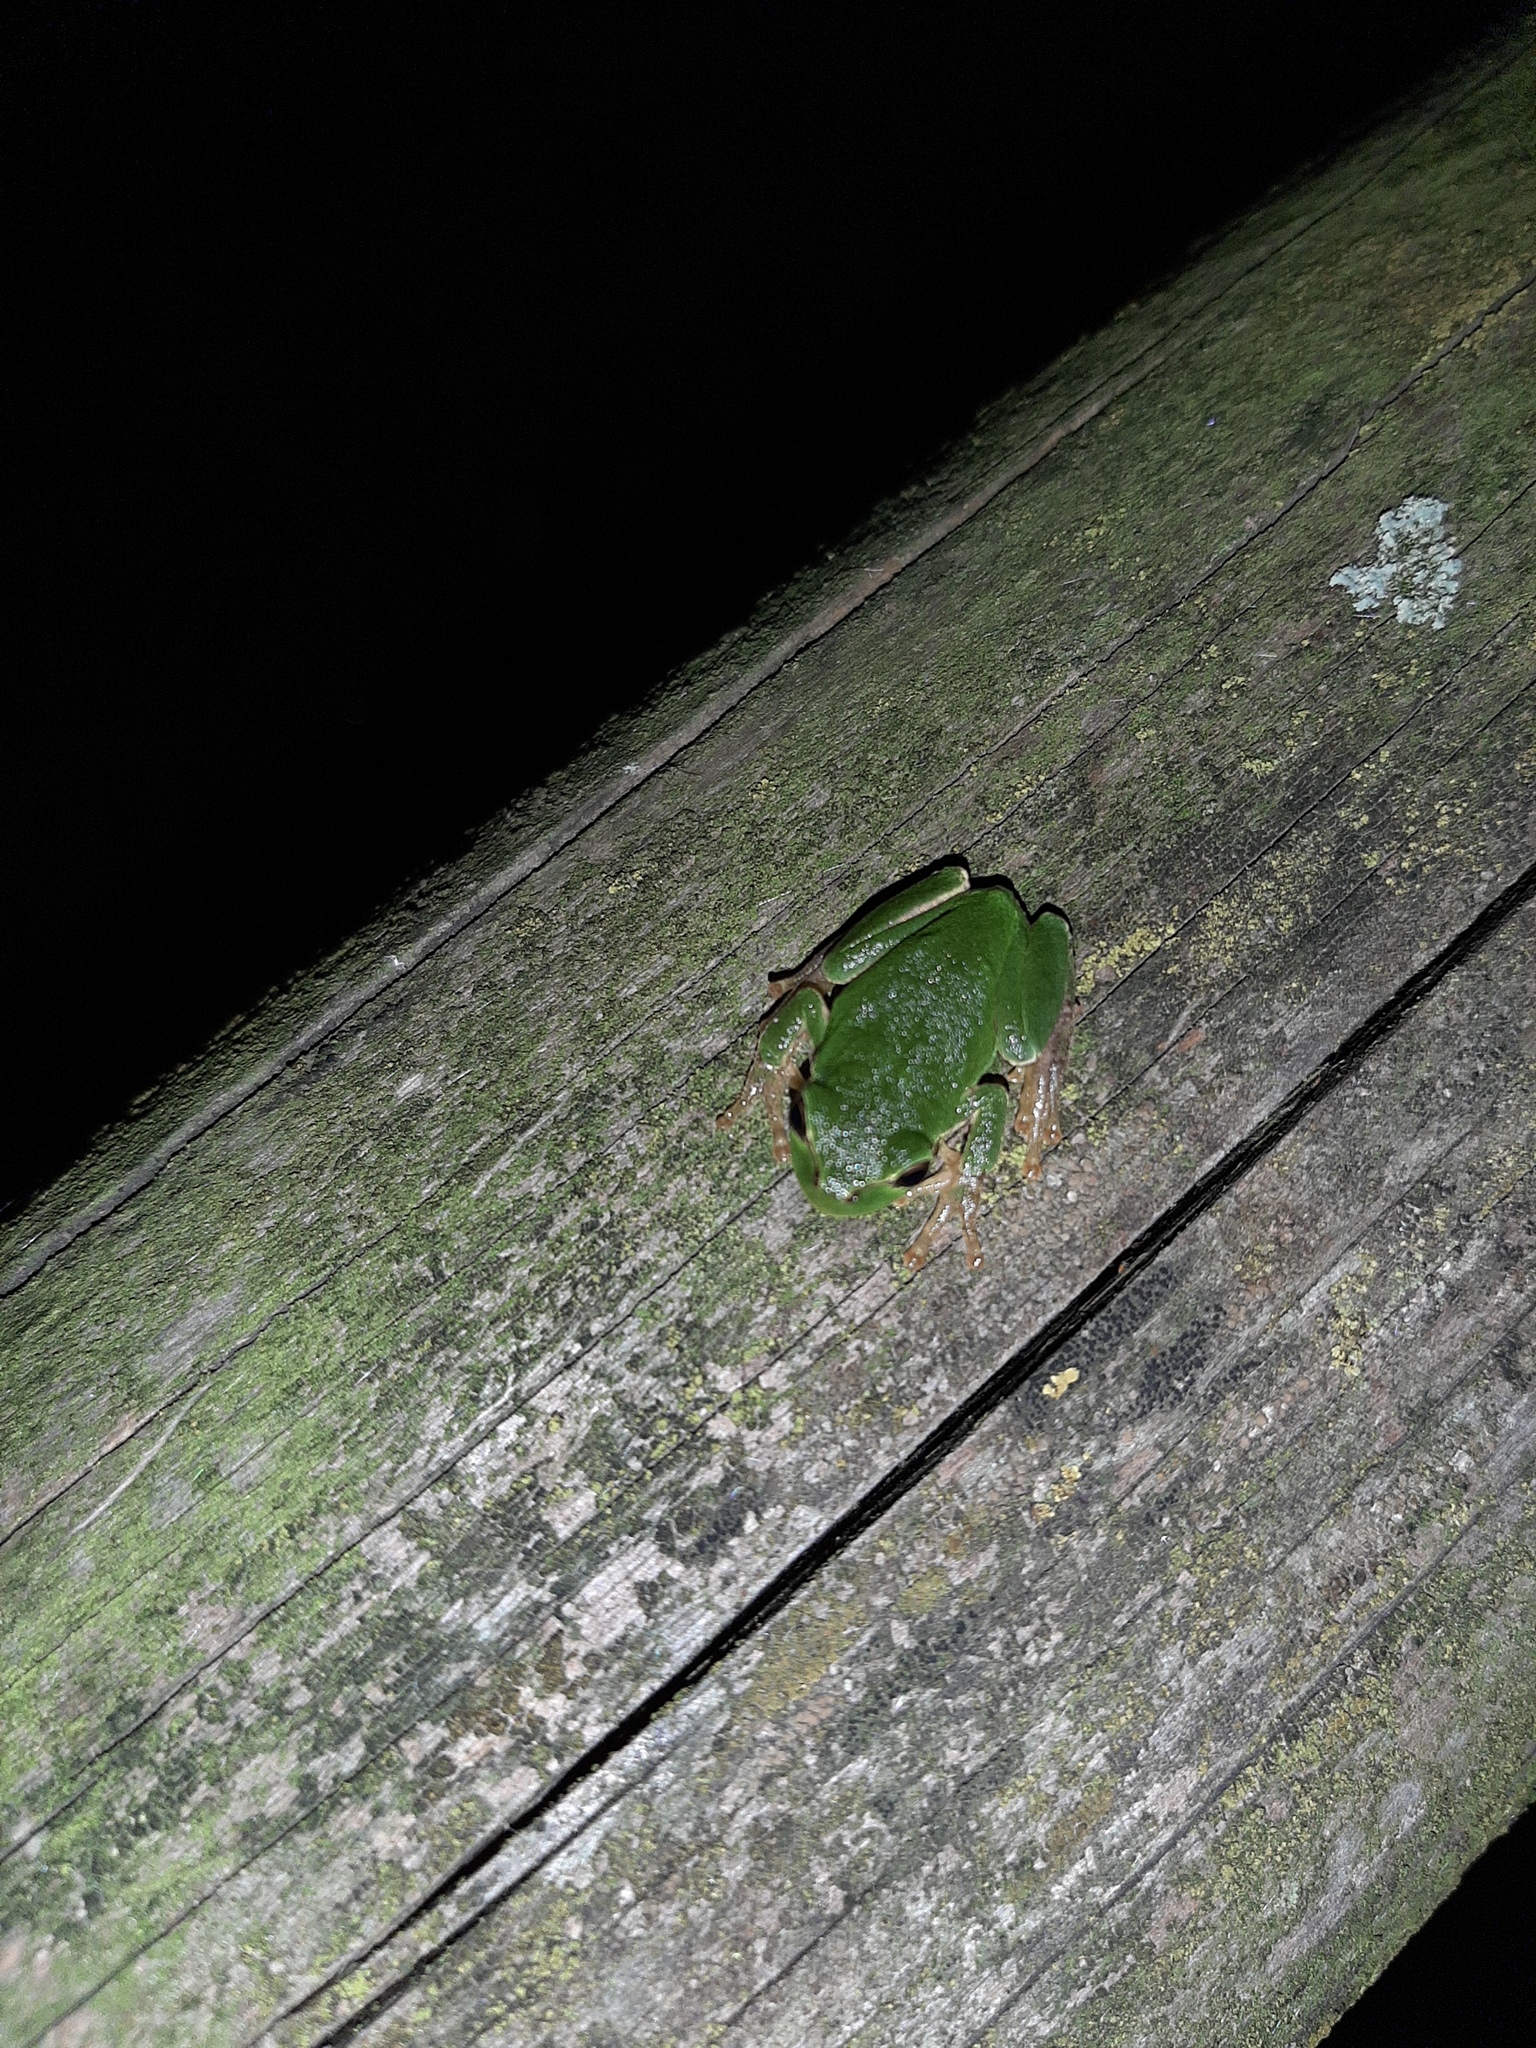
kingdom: Animalia
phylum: Chordata
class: Amphibia
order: Anura
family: Hylidae
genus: Hyla
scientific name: Hyla intermedia
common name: Italian tree frog
